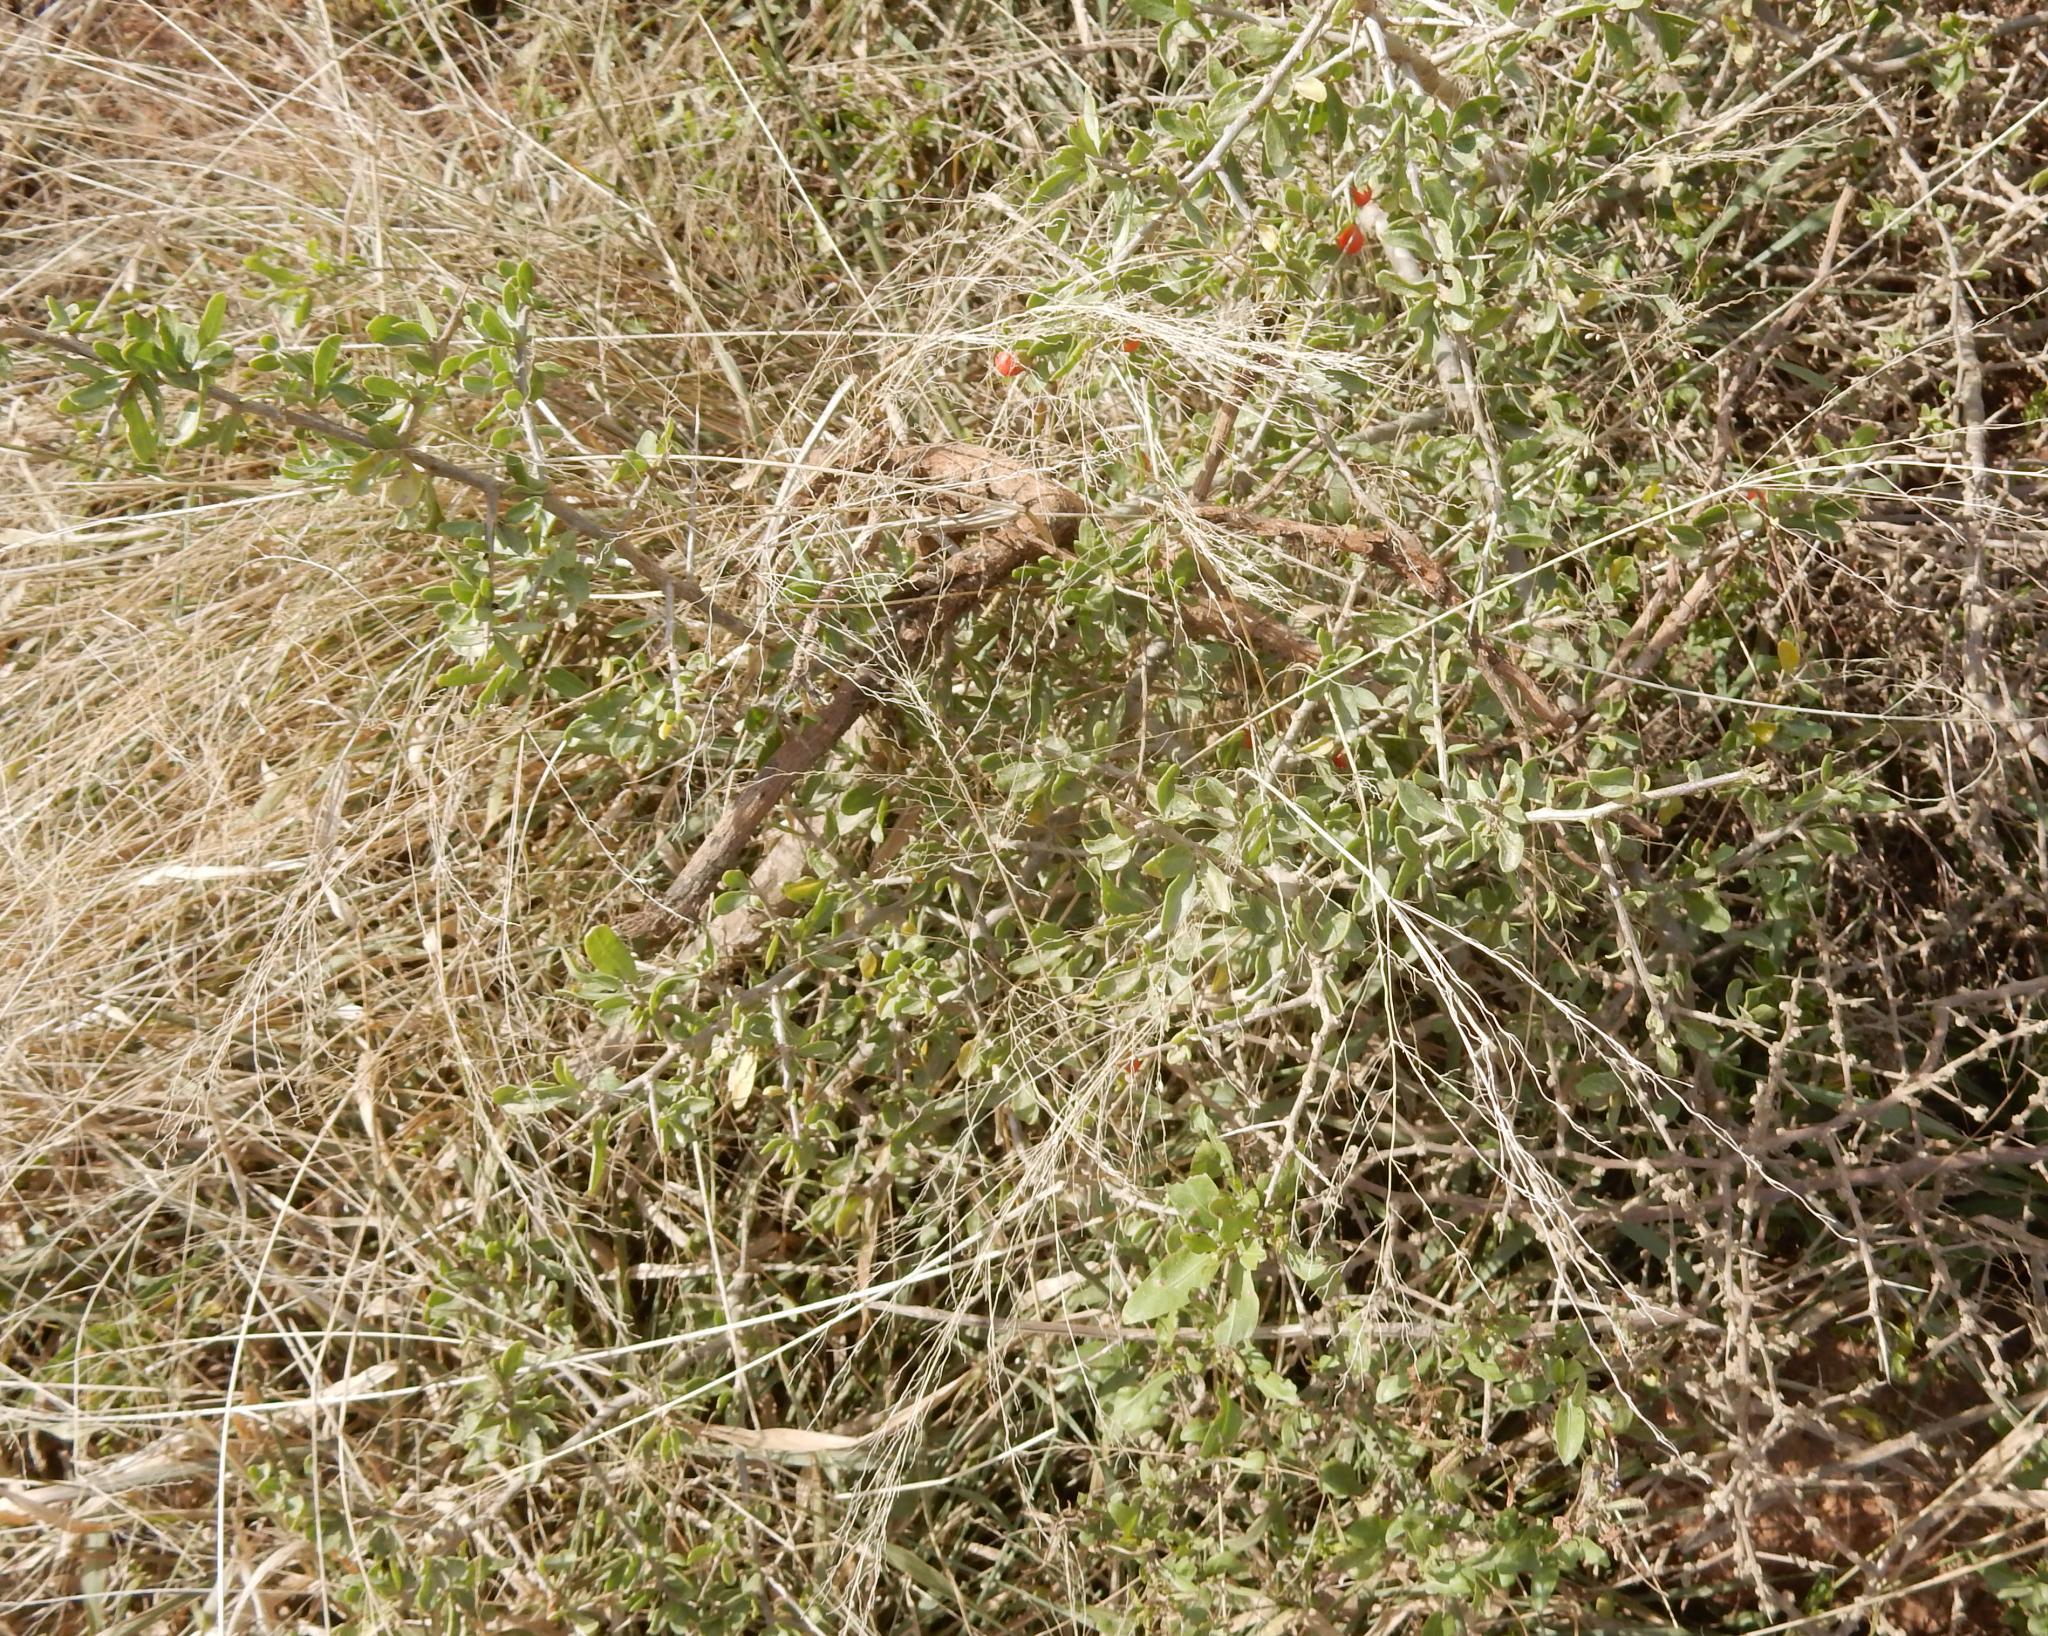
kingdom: Plantae
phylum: Tracheophyta
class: Magnoliopsida
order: Solanales
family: Solanaceae
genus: Lycium
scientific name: Lycium ferocissimum
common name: African boxthorn
